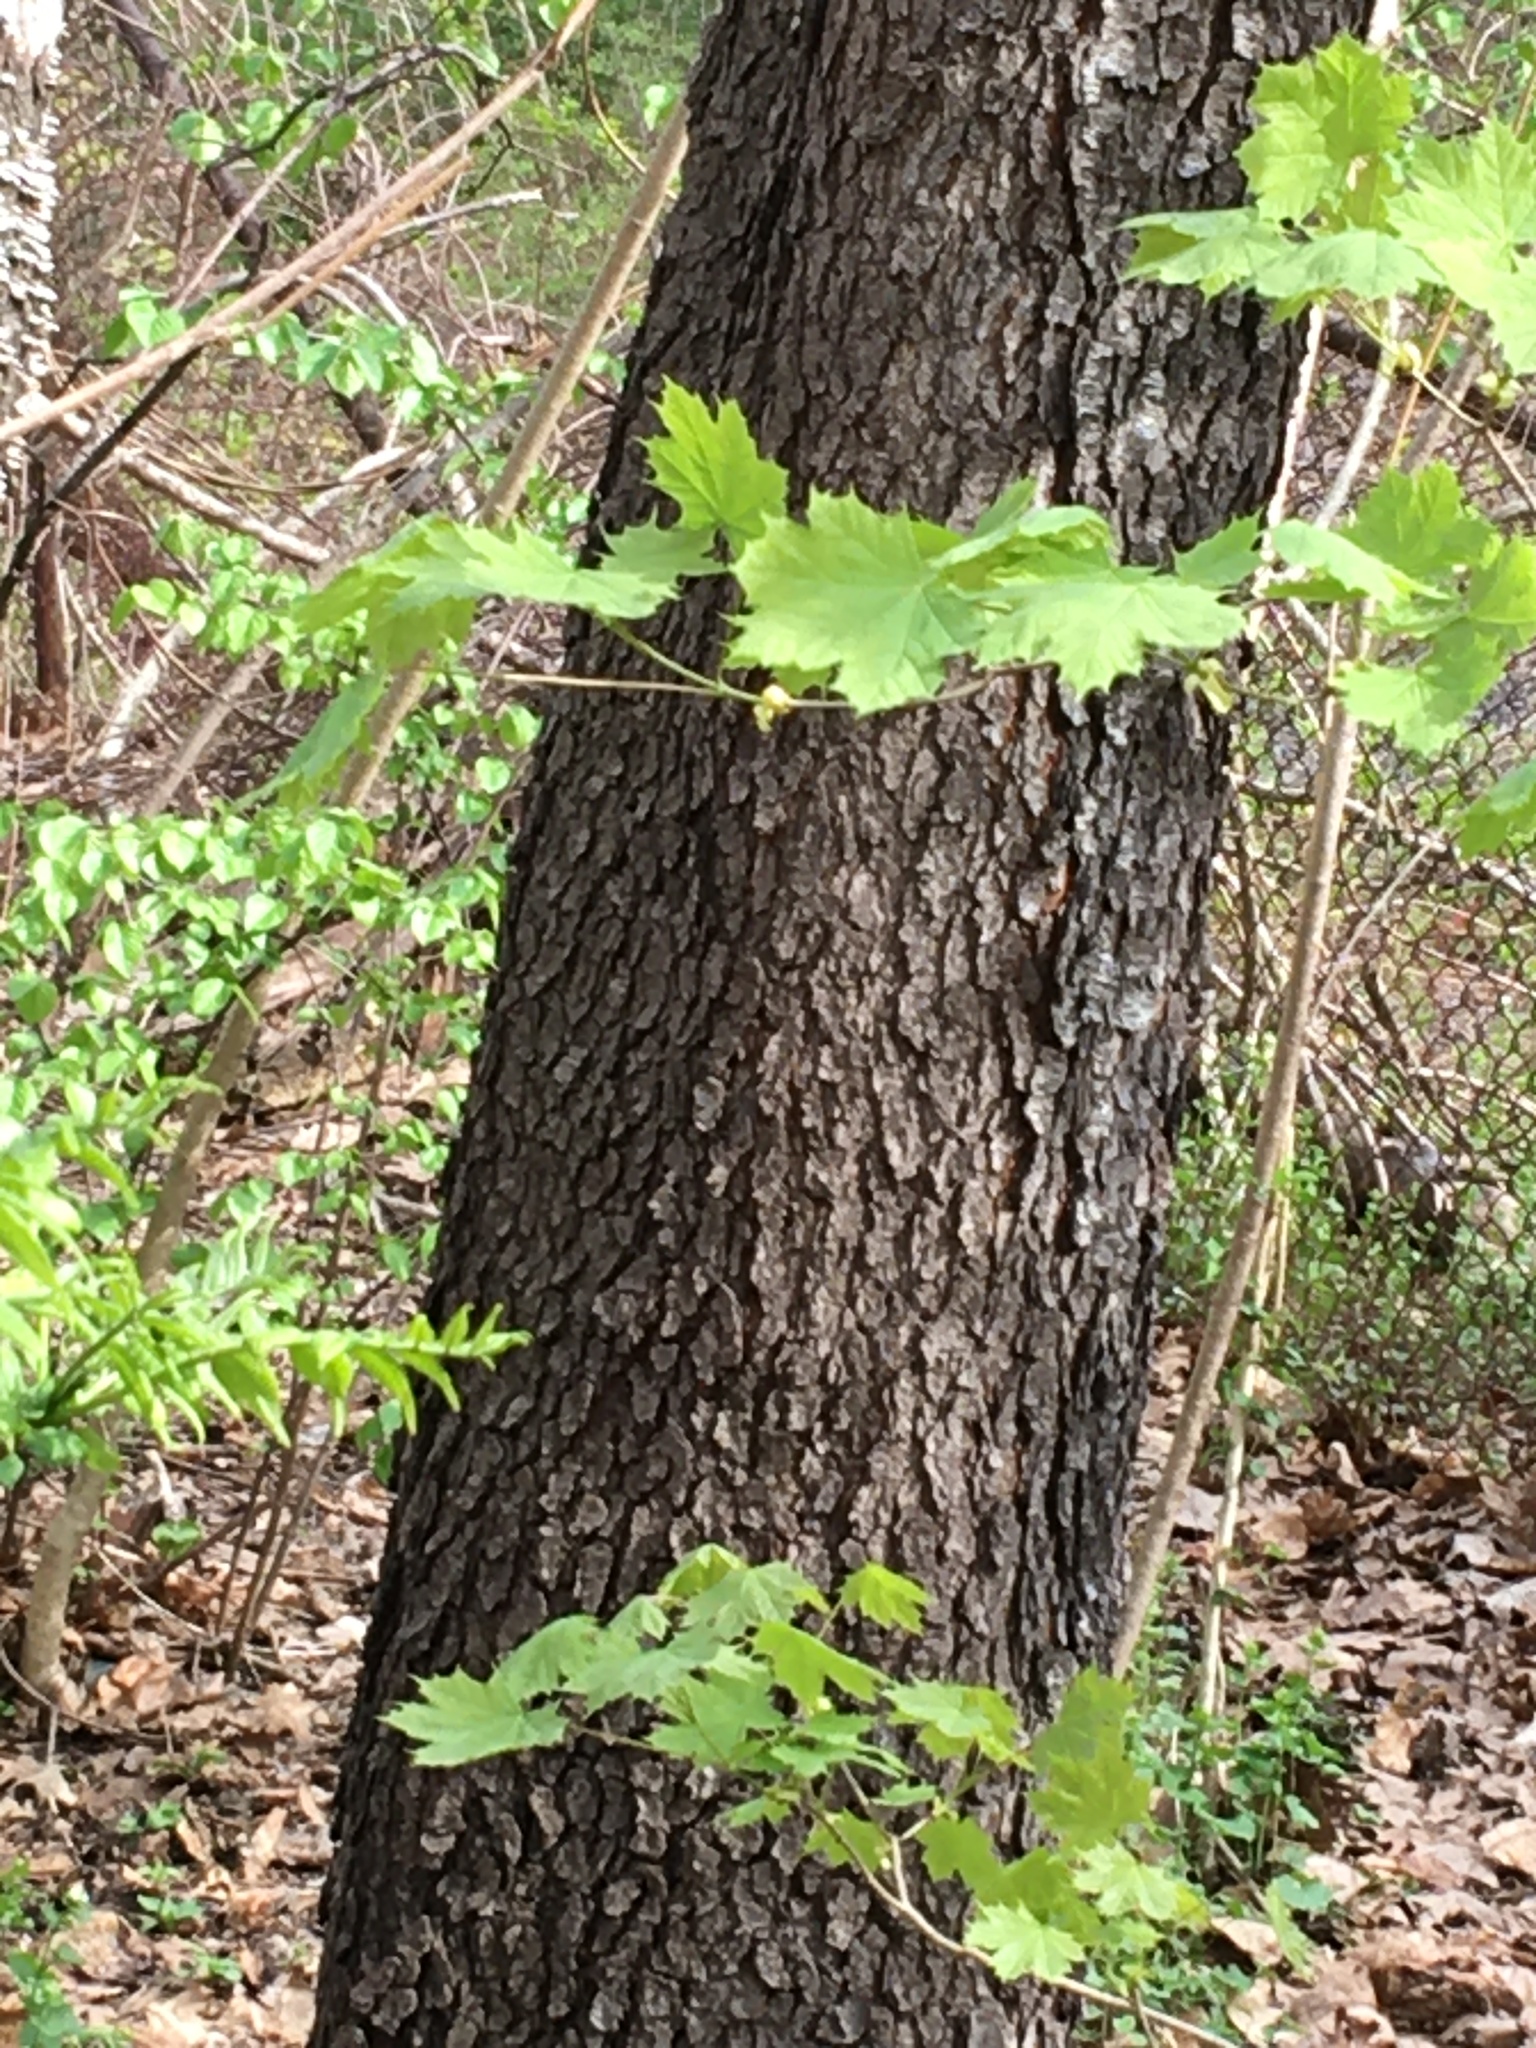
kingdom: Plantae
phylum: Tracheophyta
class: Magnoliopsida
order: Rosales
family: Rosaceae
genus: Prunus
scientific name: Prunus serotina
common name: Black cherry
